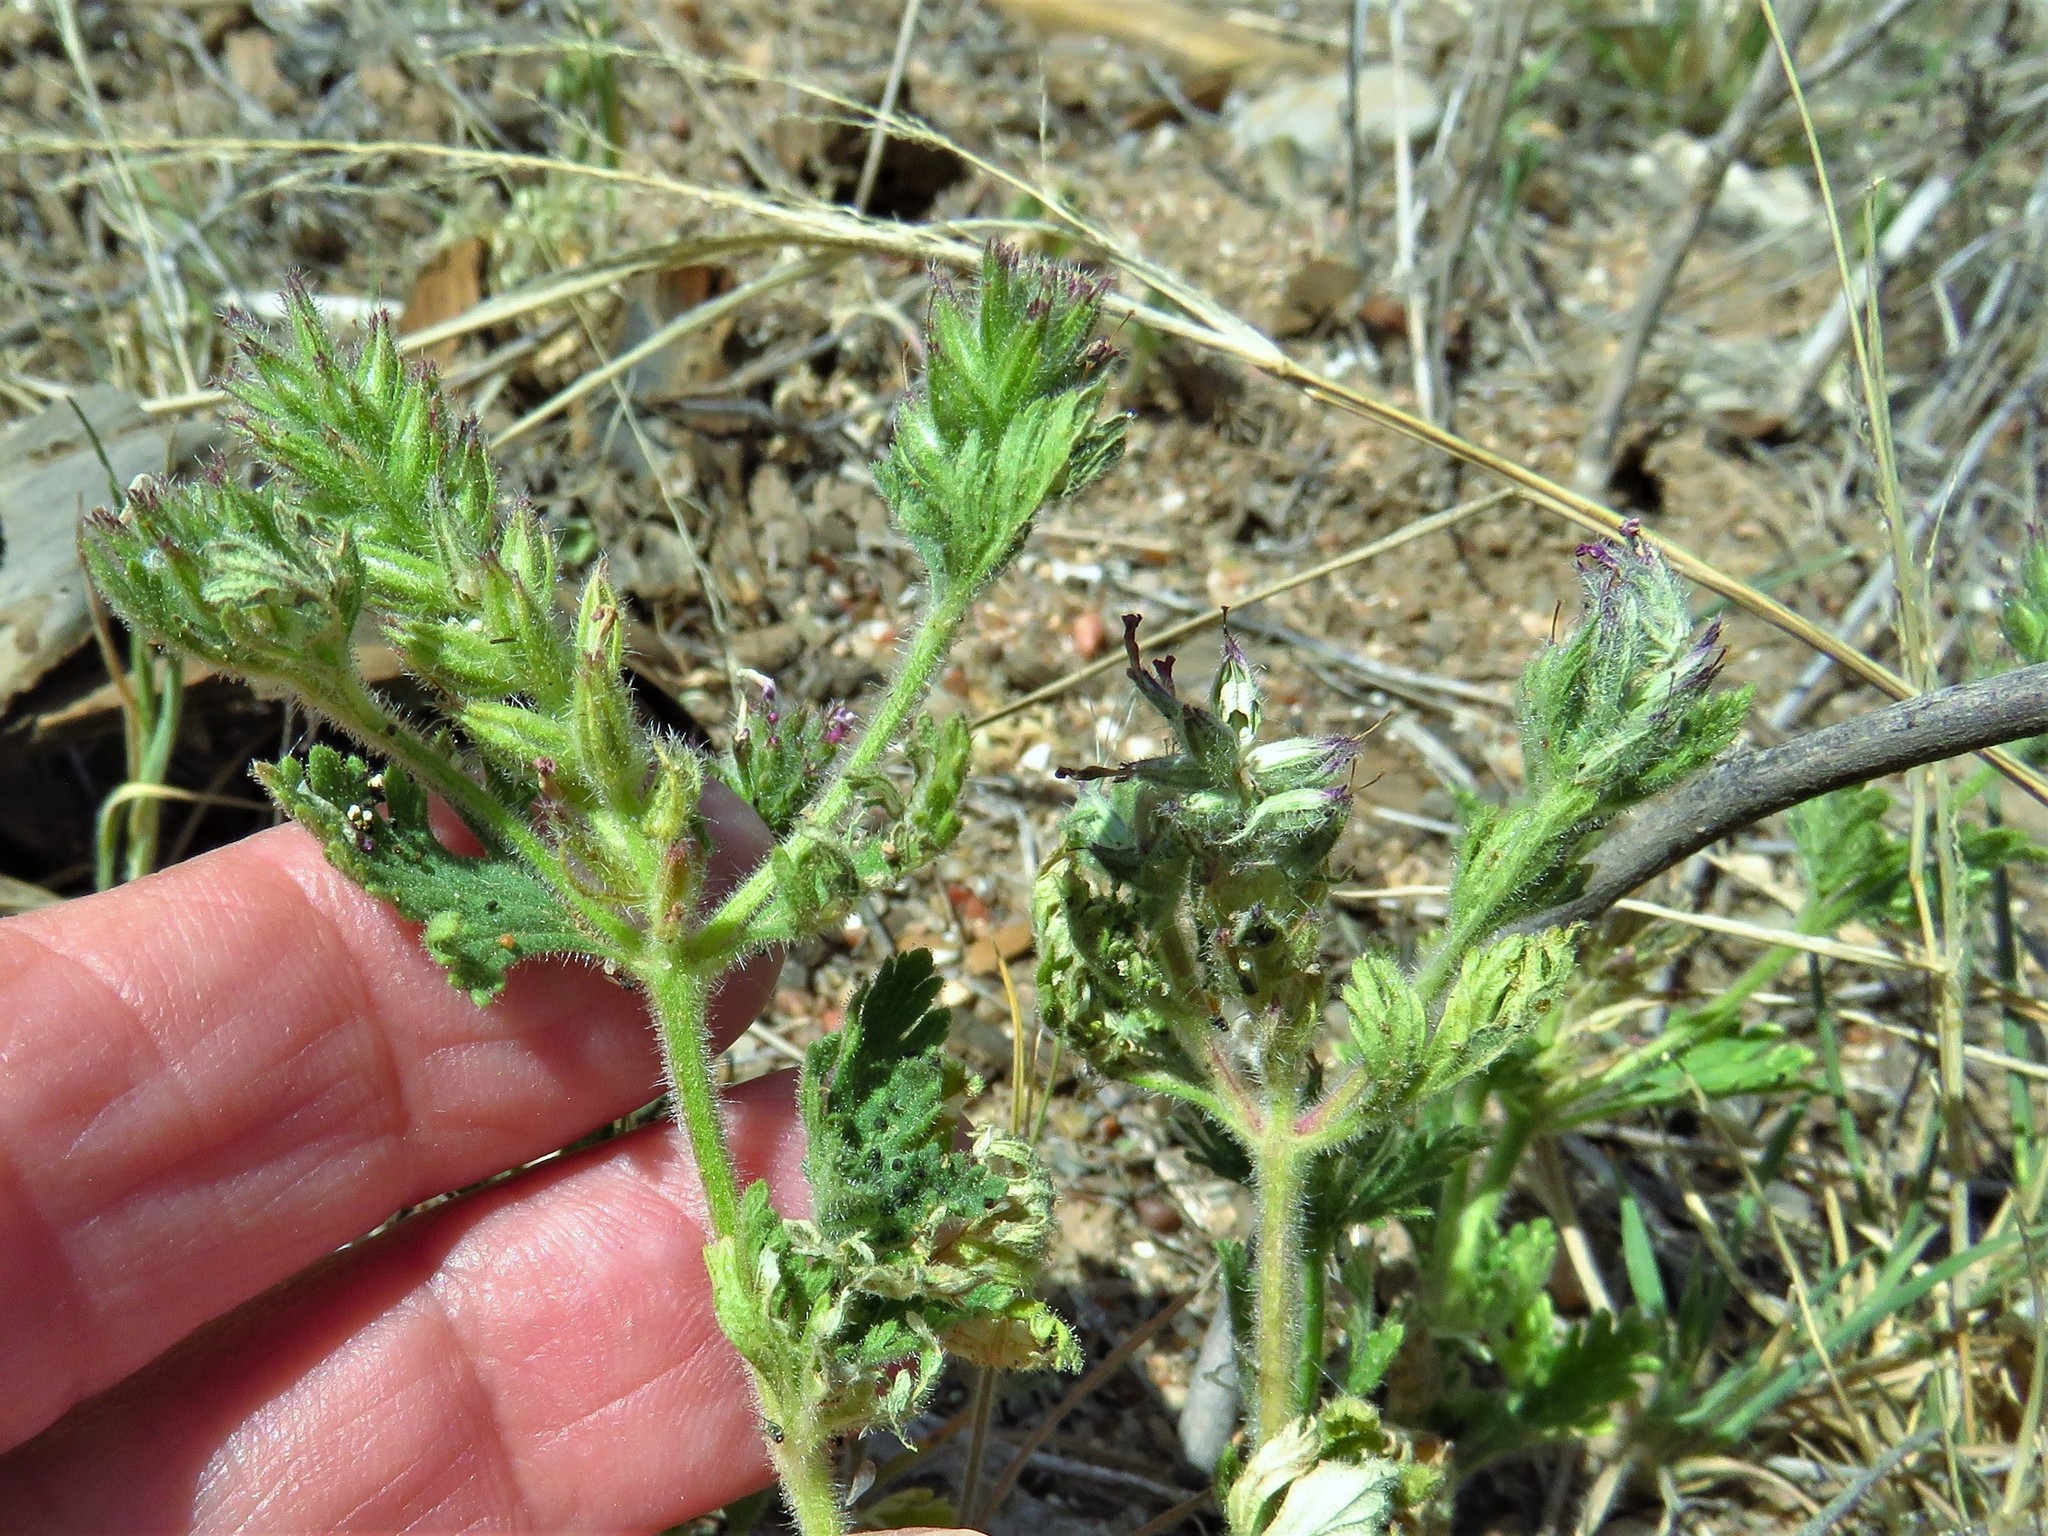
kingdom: Plantae
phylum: Tracheophyta
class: Magnoliopsida
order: Lamiales
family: Verbenaceae
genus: Verbena
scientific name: Verbena pumila
